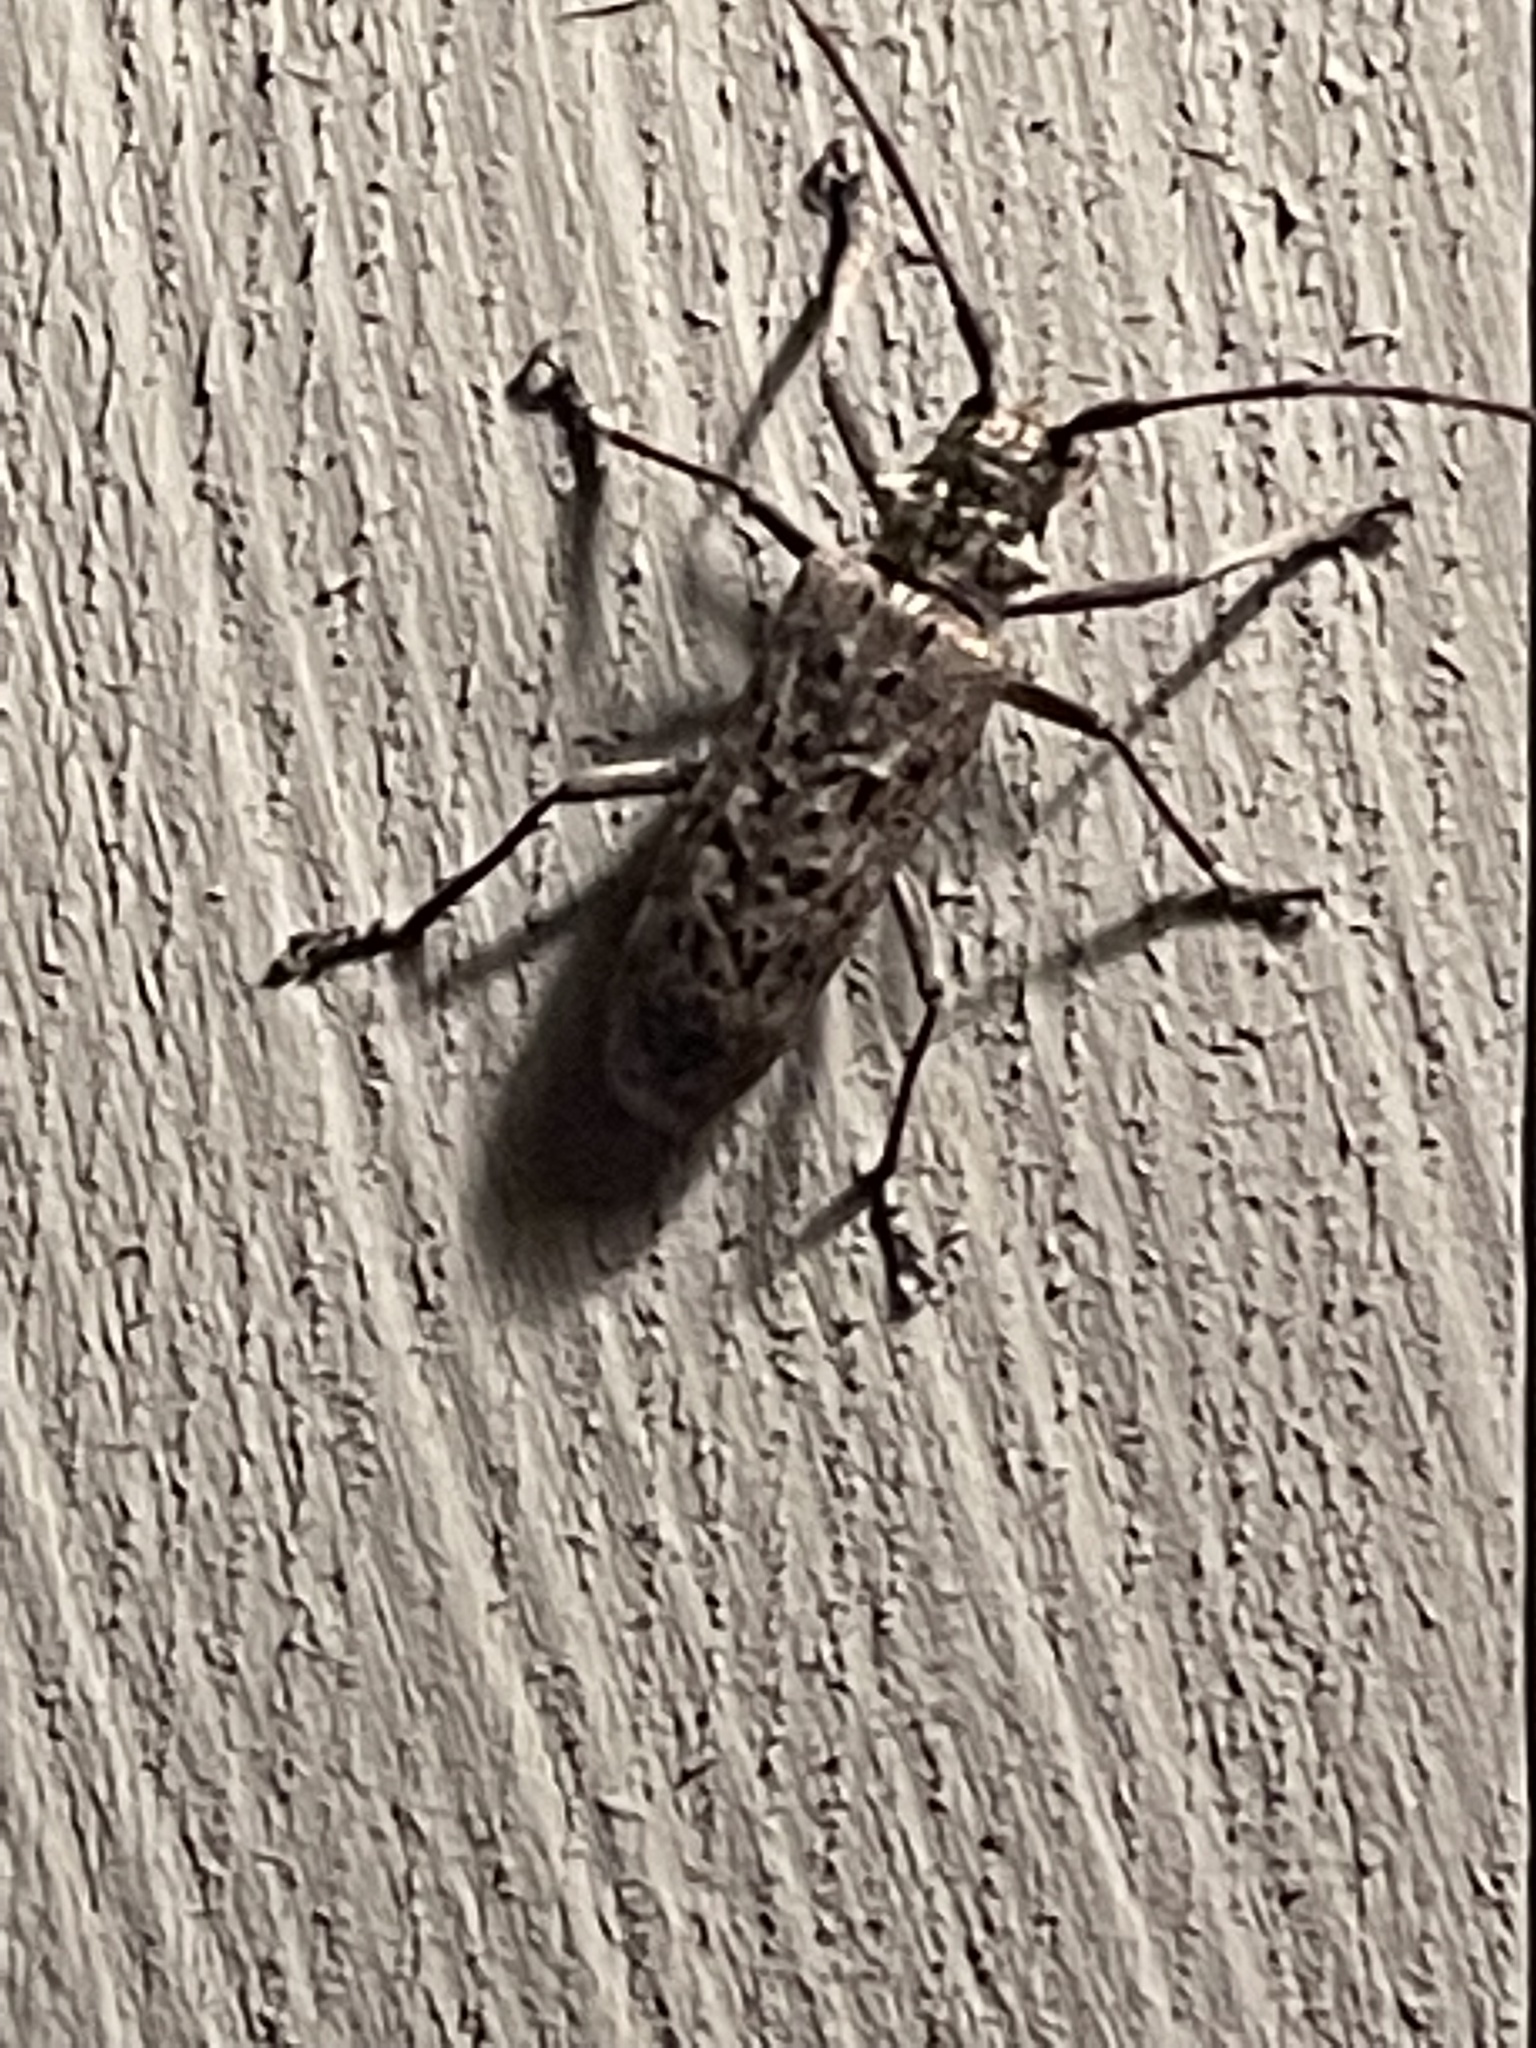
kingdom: Animalia
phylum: Arthropoda
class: Insecta
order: Coleoptera
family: Cerambycidae
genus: Monochamus
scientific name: Monochamus notatus
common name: Northeastern pine sawyer beetle
